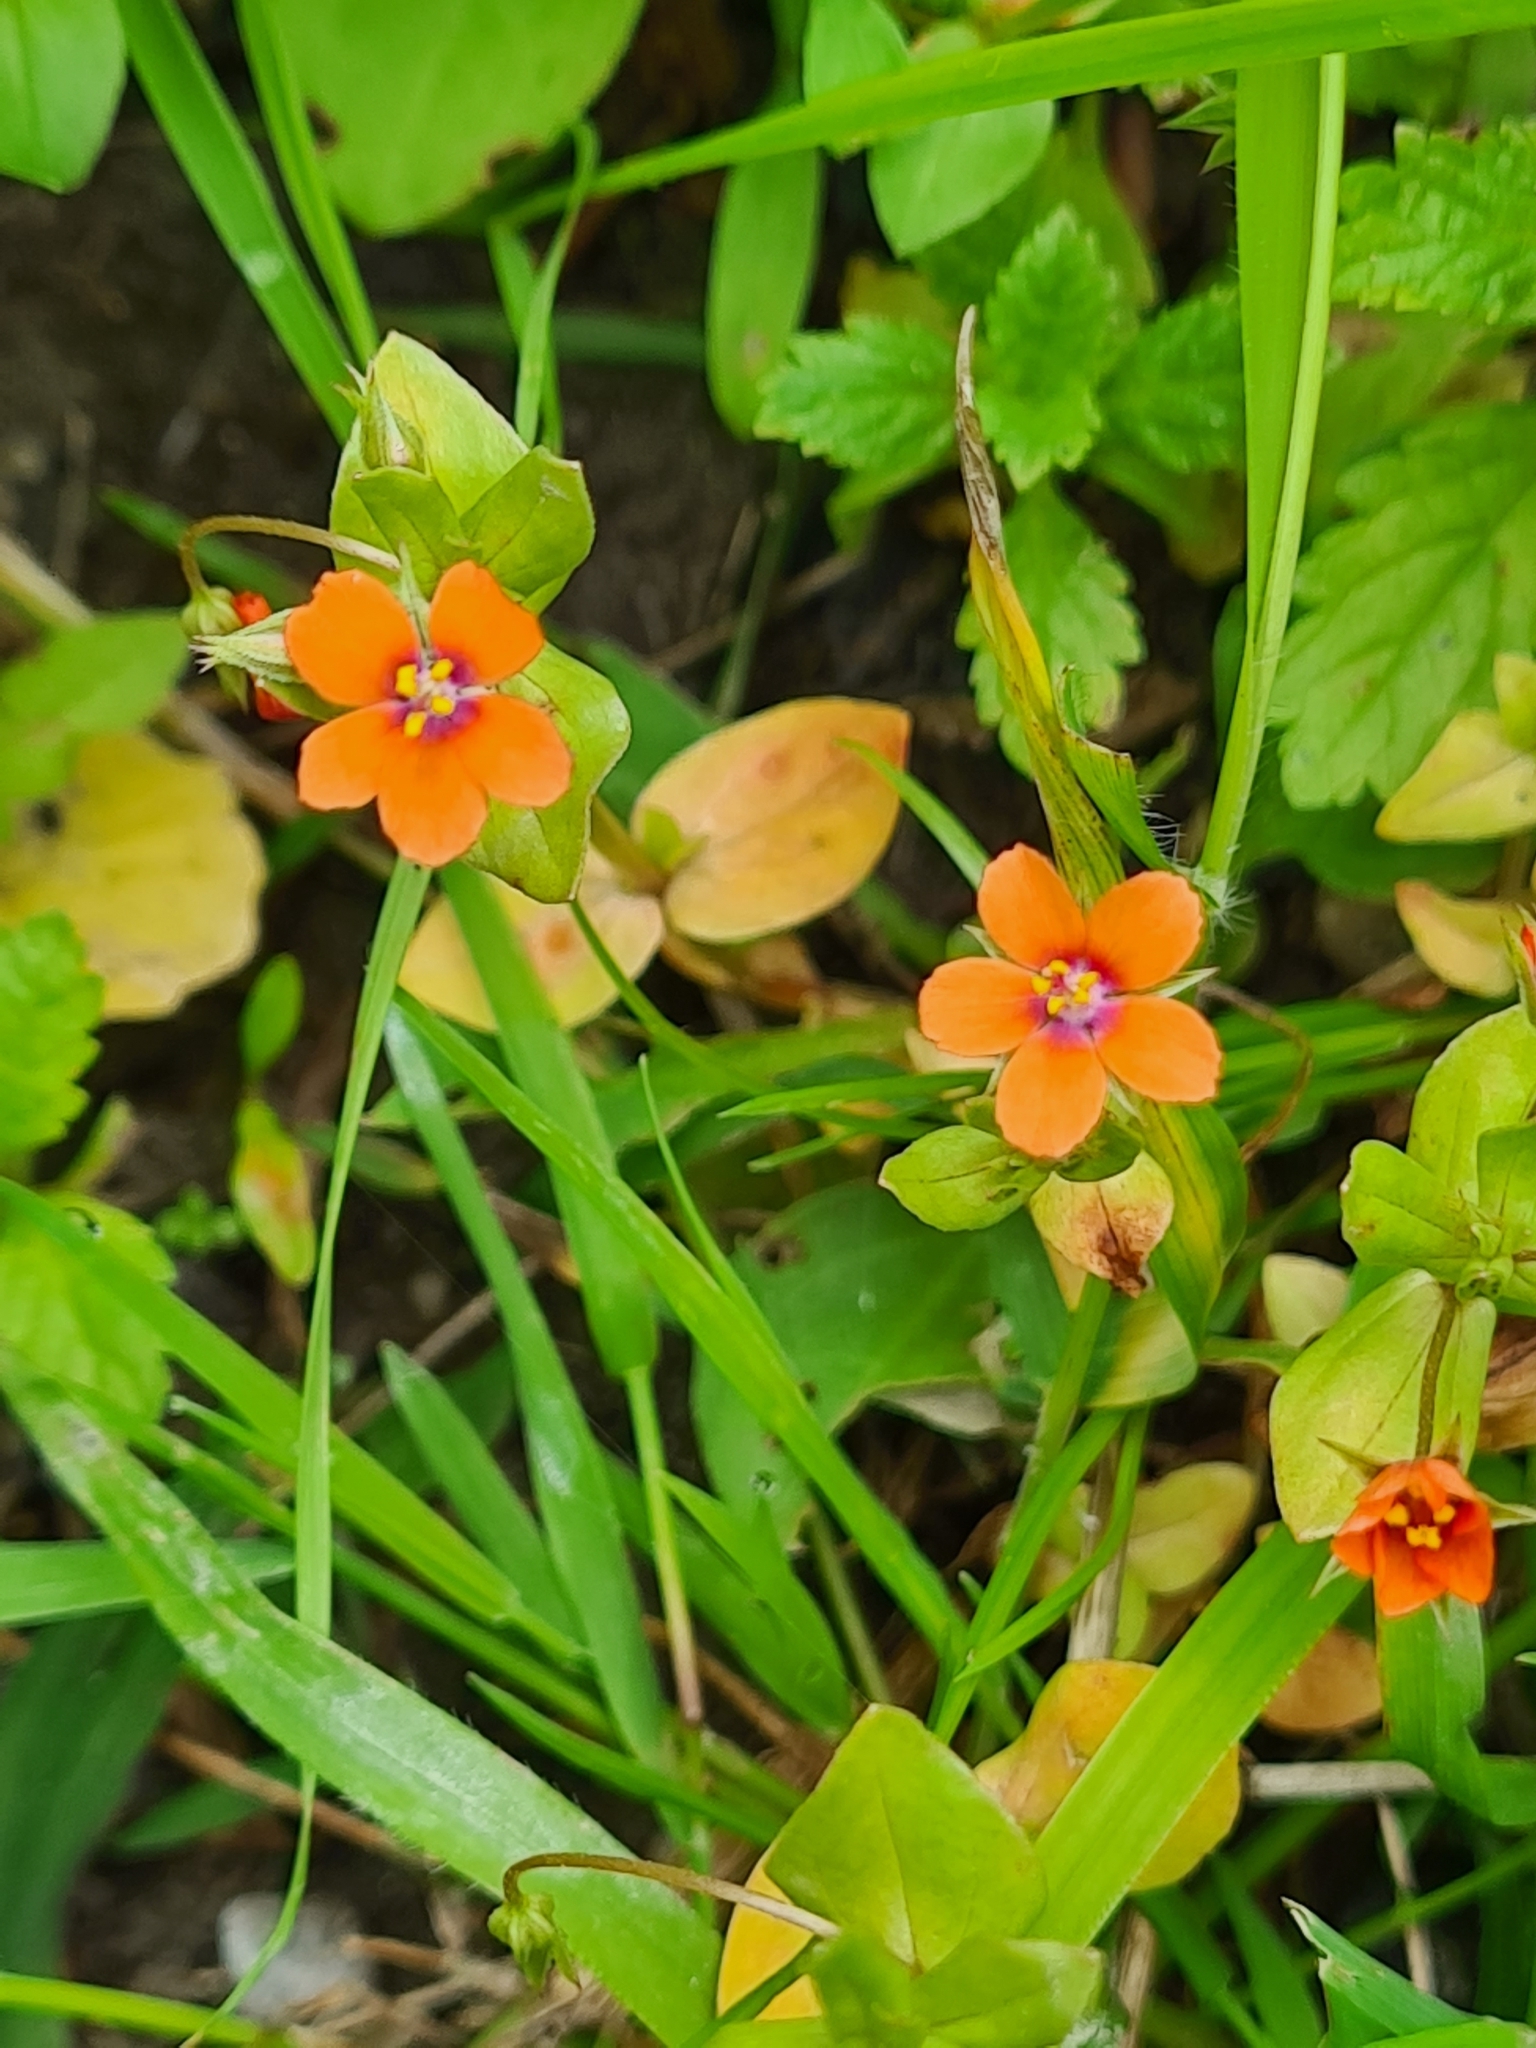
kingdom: Plantae
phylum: Tracheophyta
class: Magnoliopsida
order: Ericales
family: Primulaceae
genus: Lysimachia
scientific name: Lysimachia arvensis
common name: Scarlet pimpernel
